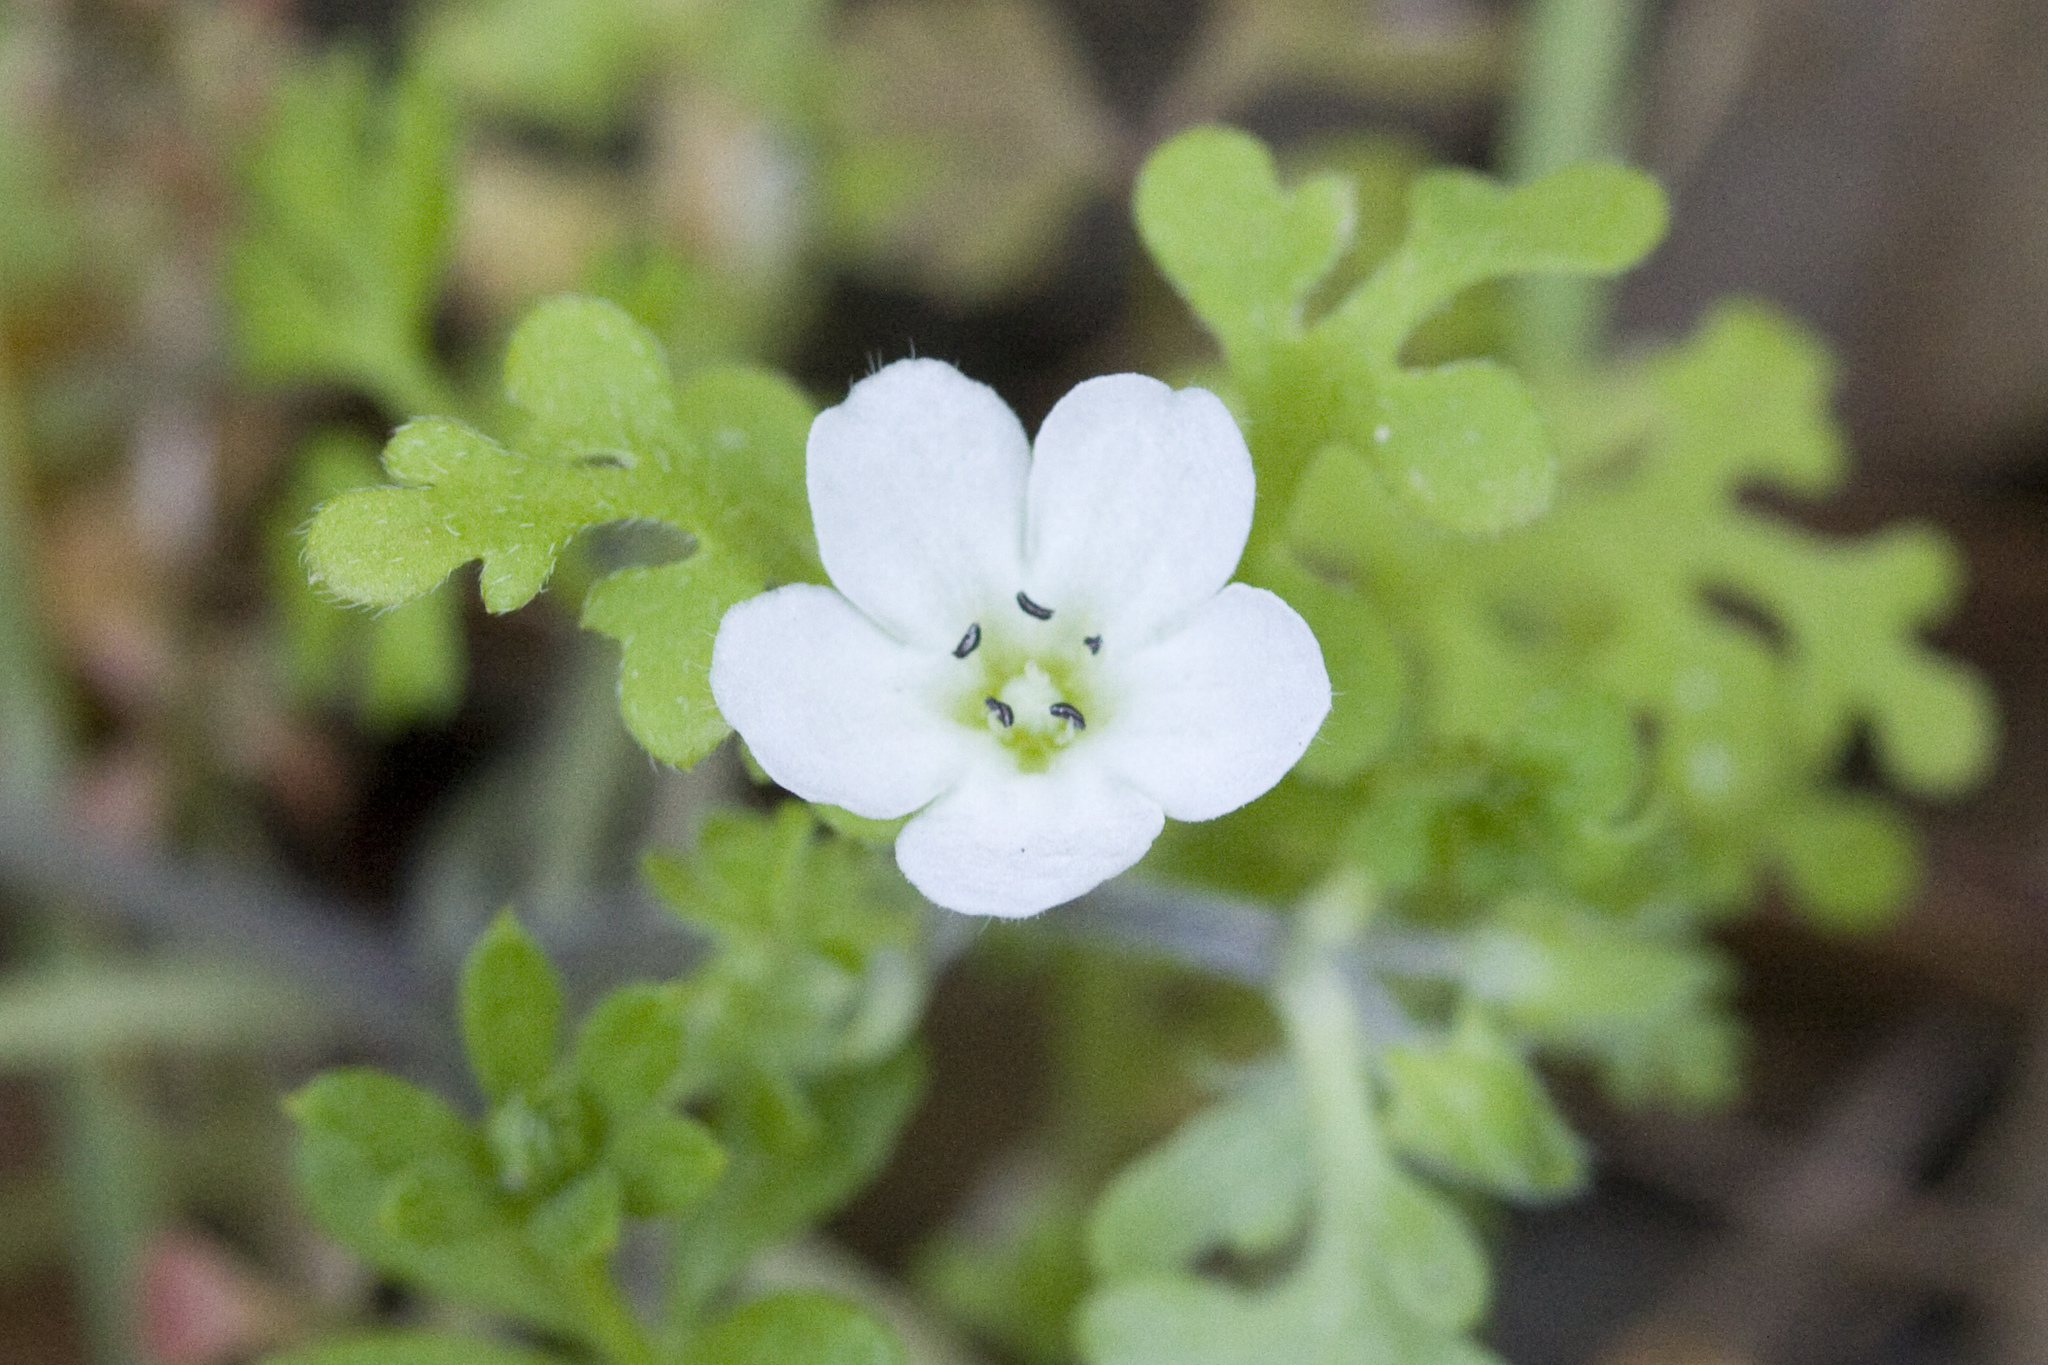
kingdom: Plantae
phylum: Tracheophyta
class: Magnoliopsida
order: Boraginales
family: Hydrophyllaceae
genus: Nemophila
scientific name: Nemophila heterophylla
